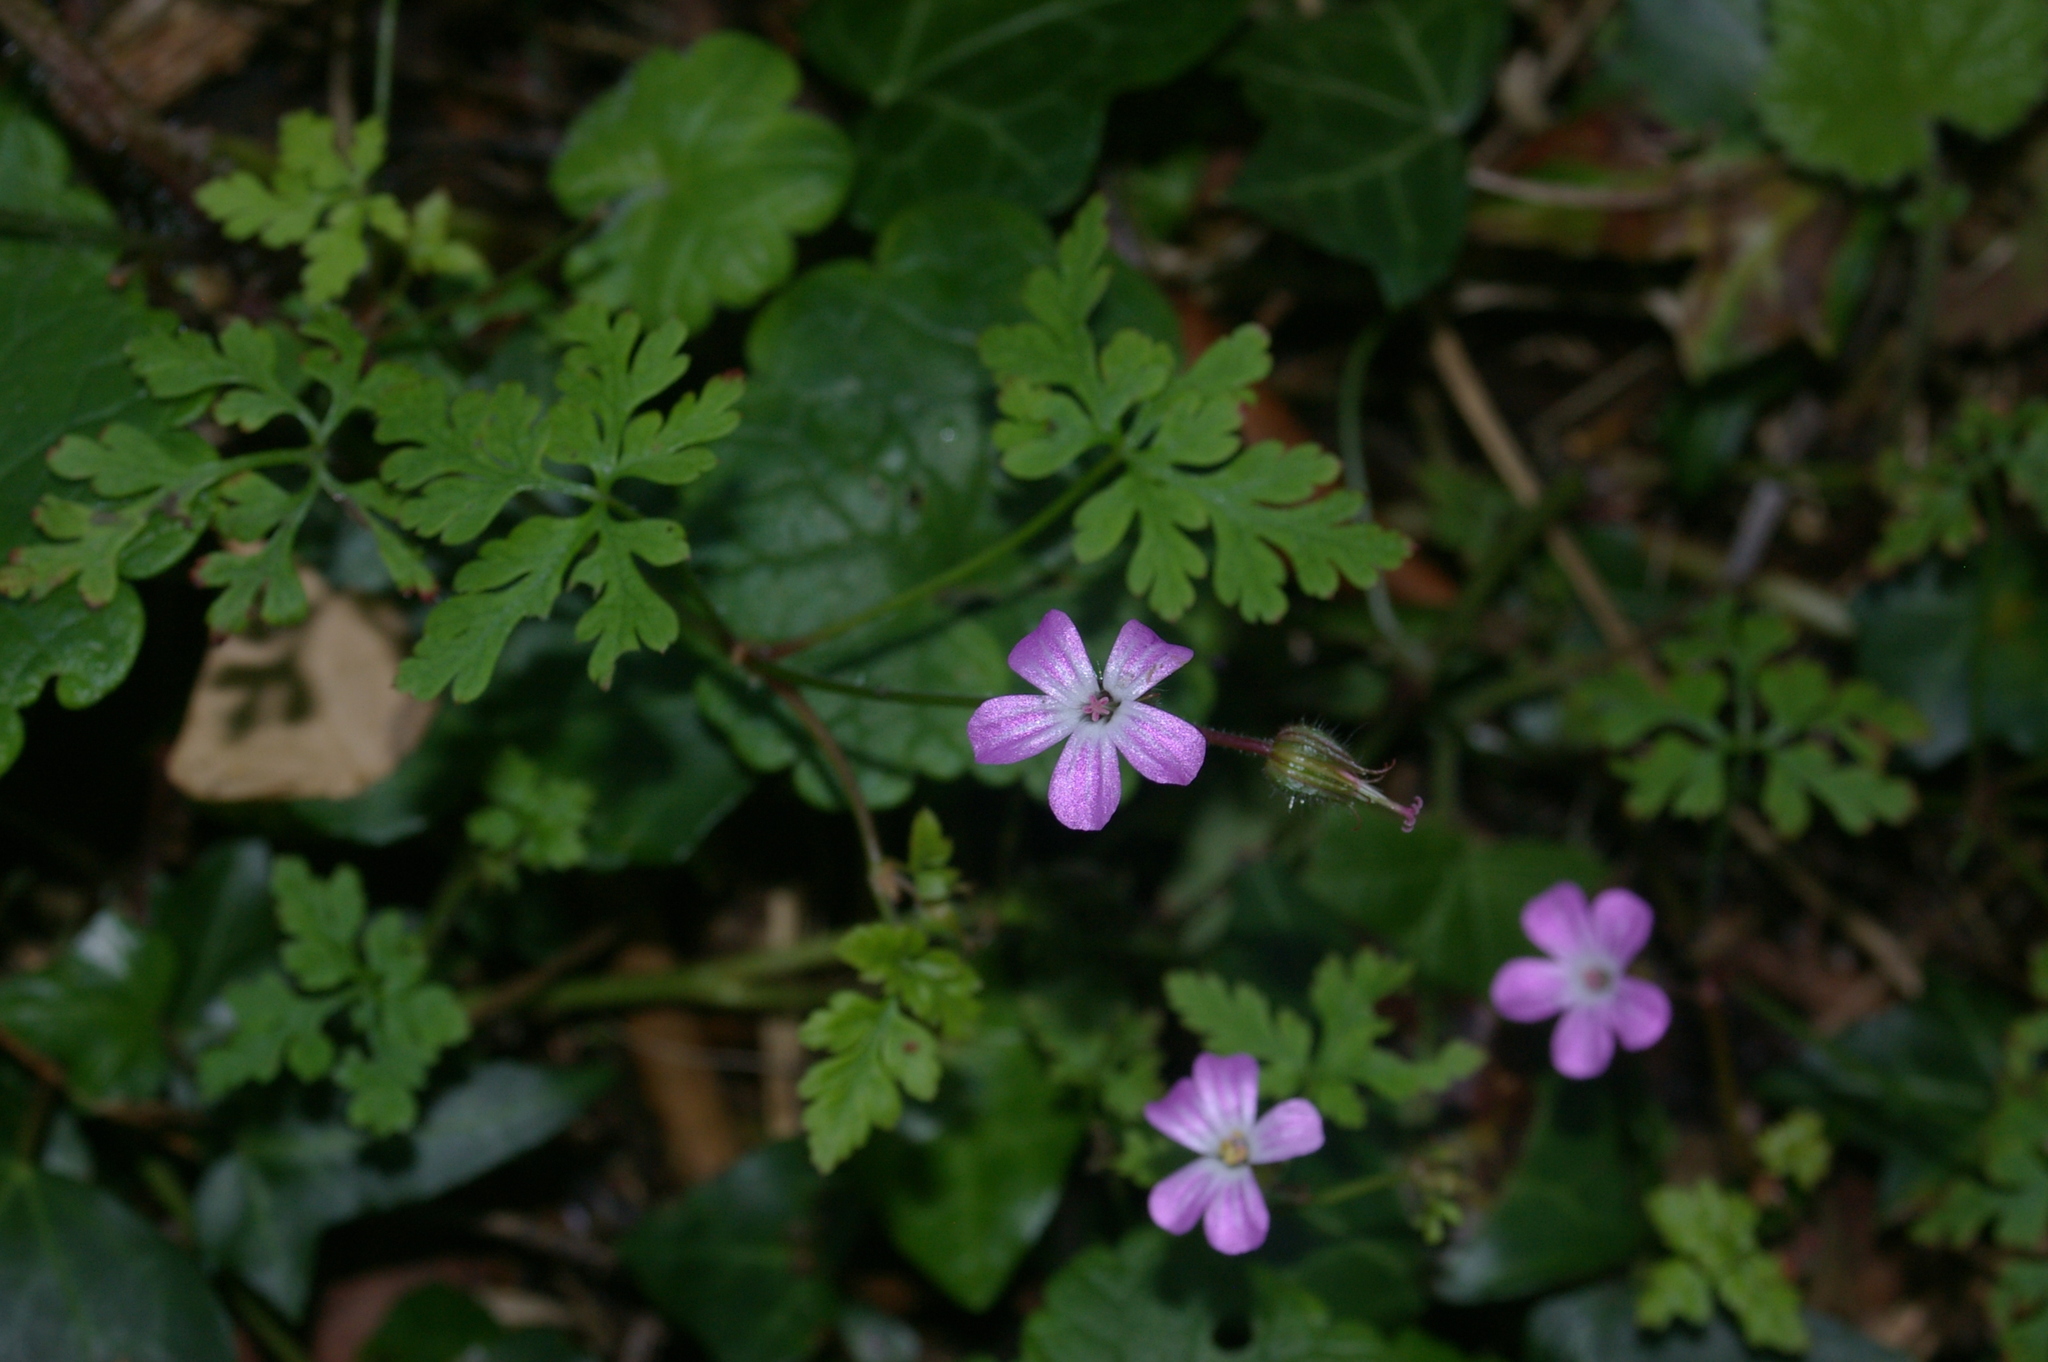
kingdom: Plantae
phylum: Tracheophyta
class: Magnoliopsida
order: Geraniales
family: Geraniaceae
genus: Geranium
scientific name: Geranium robertianum
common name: Herb-robert
